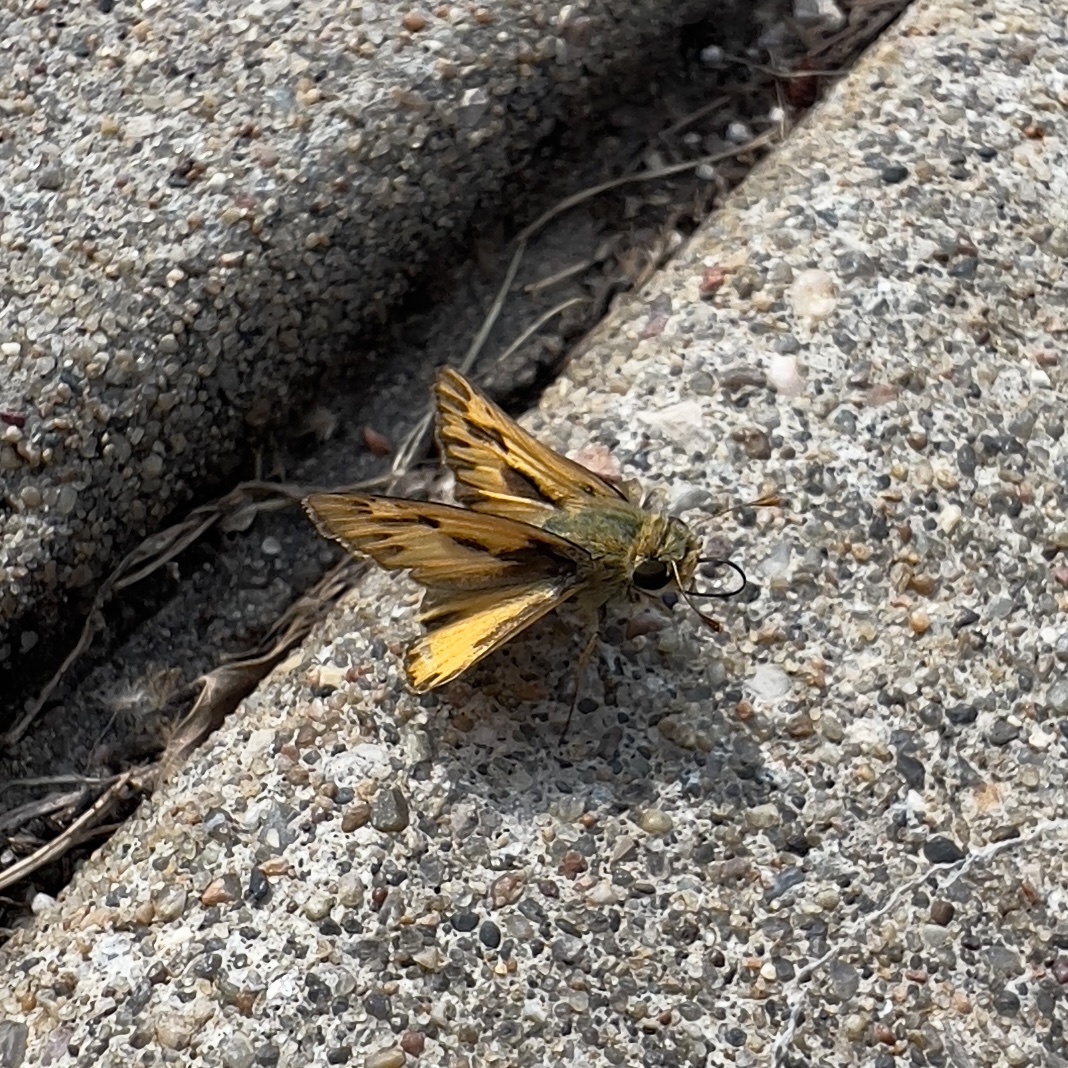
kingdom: Animalia
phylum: Arthropoda
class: Insecta
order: Lepidoptera
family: Hesperiidae
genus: Hylephila
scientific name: Hylephila phyleus
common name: Fiery skipper
